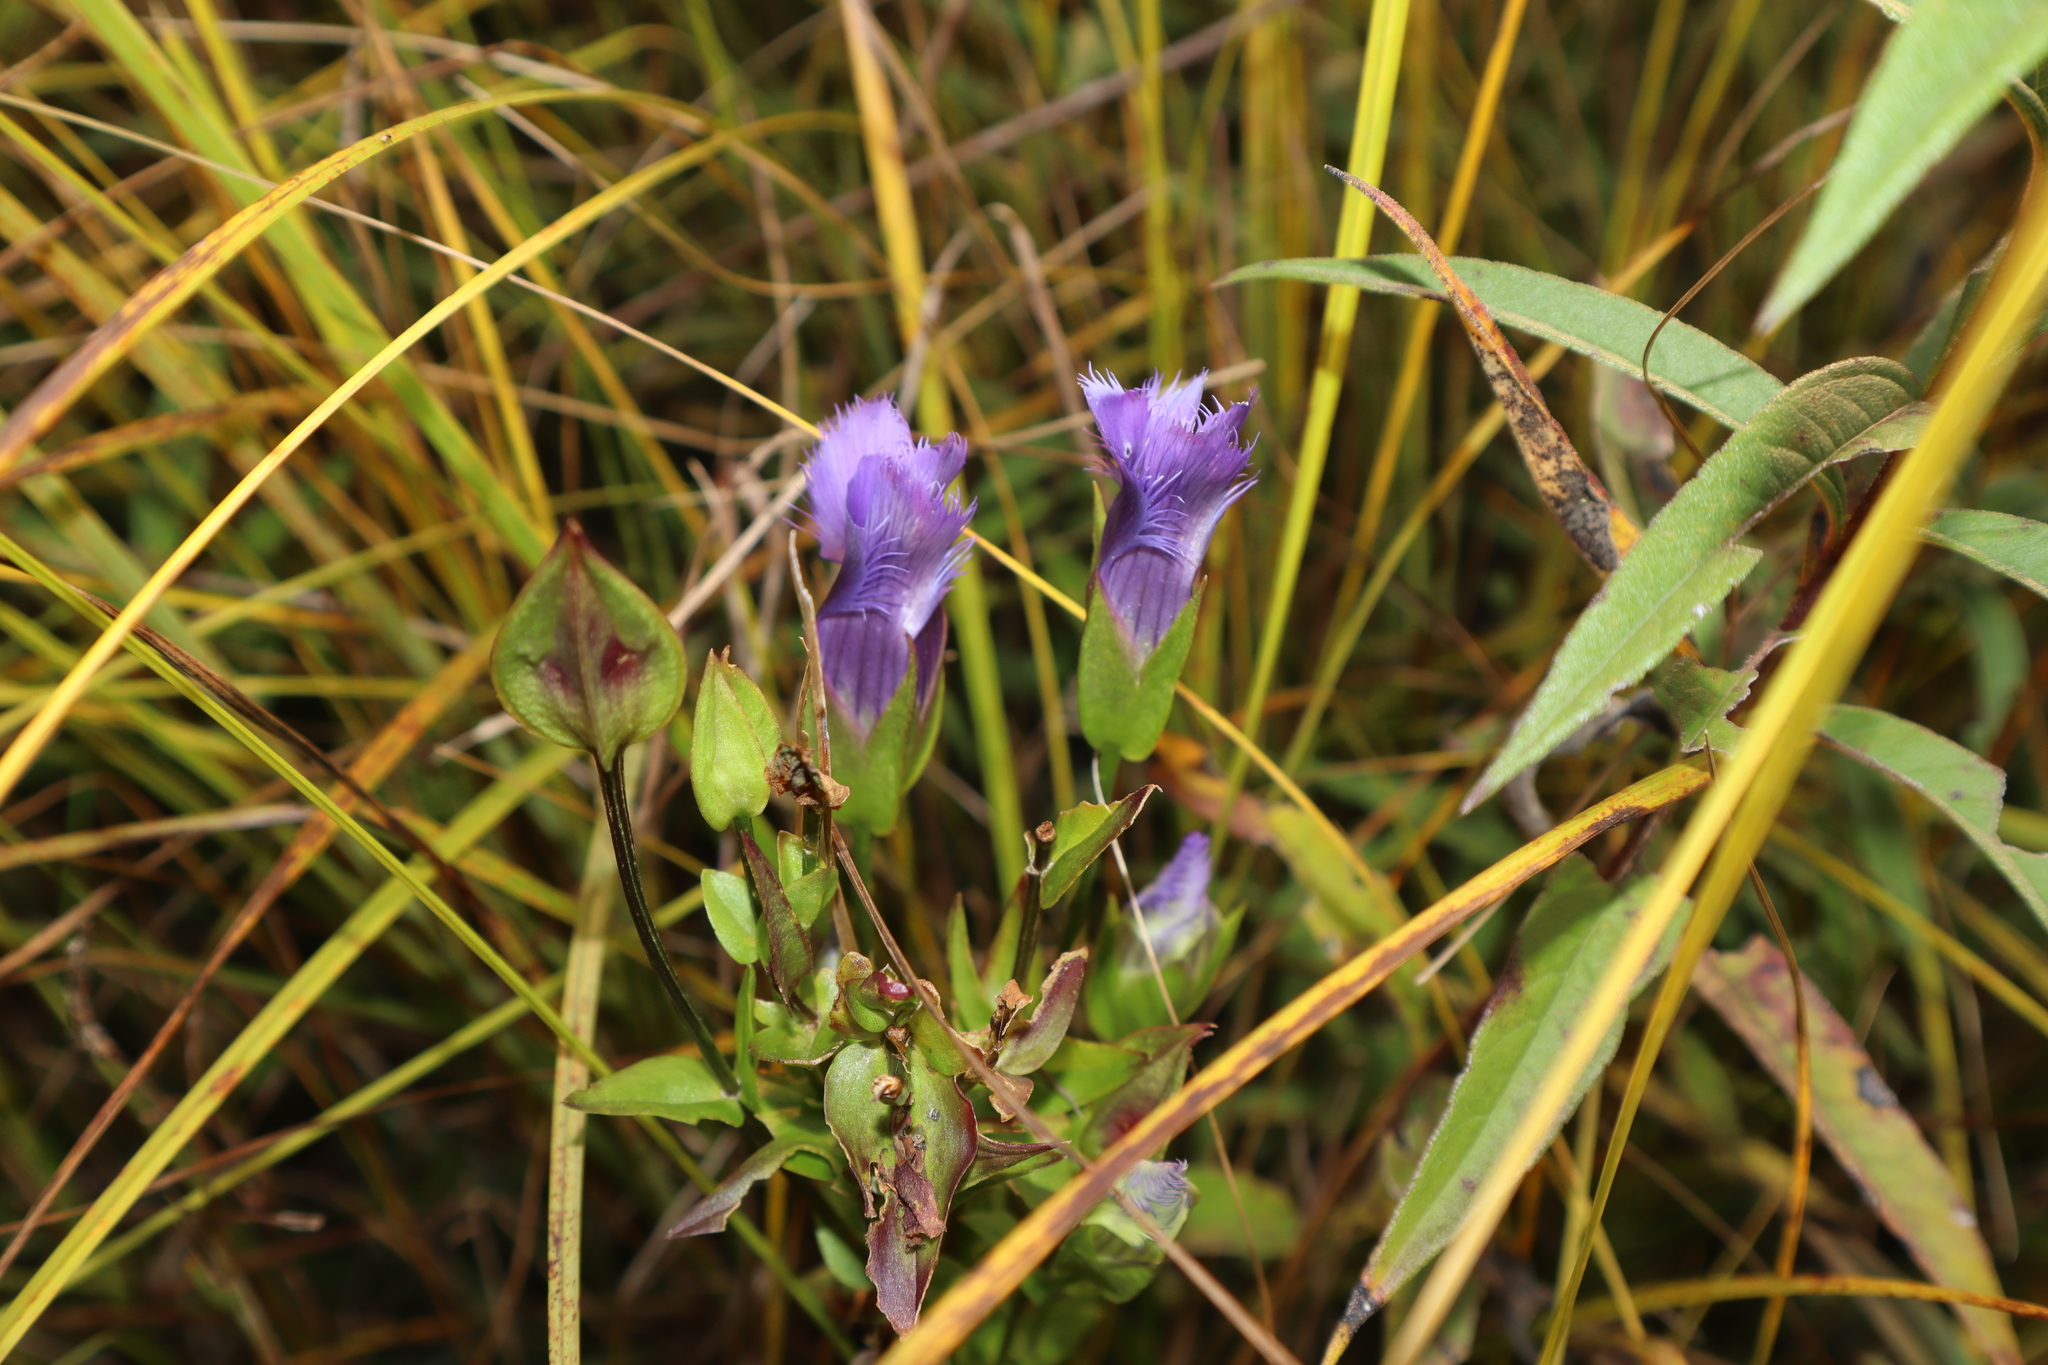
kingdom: Plantae
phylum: Tracheophyta
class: Magnoliopsida
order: Gentianales
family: Gentianaceae
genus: Gentianopsis
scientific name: Gentianopsis virgata
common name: Lesser fringed-gentian
